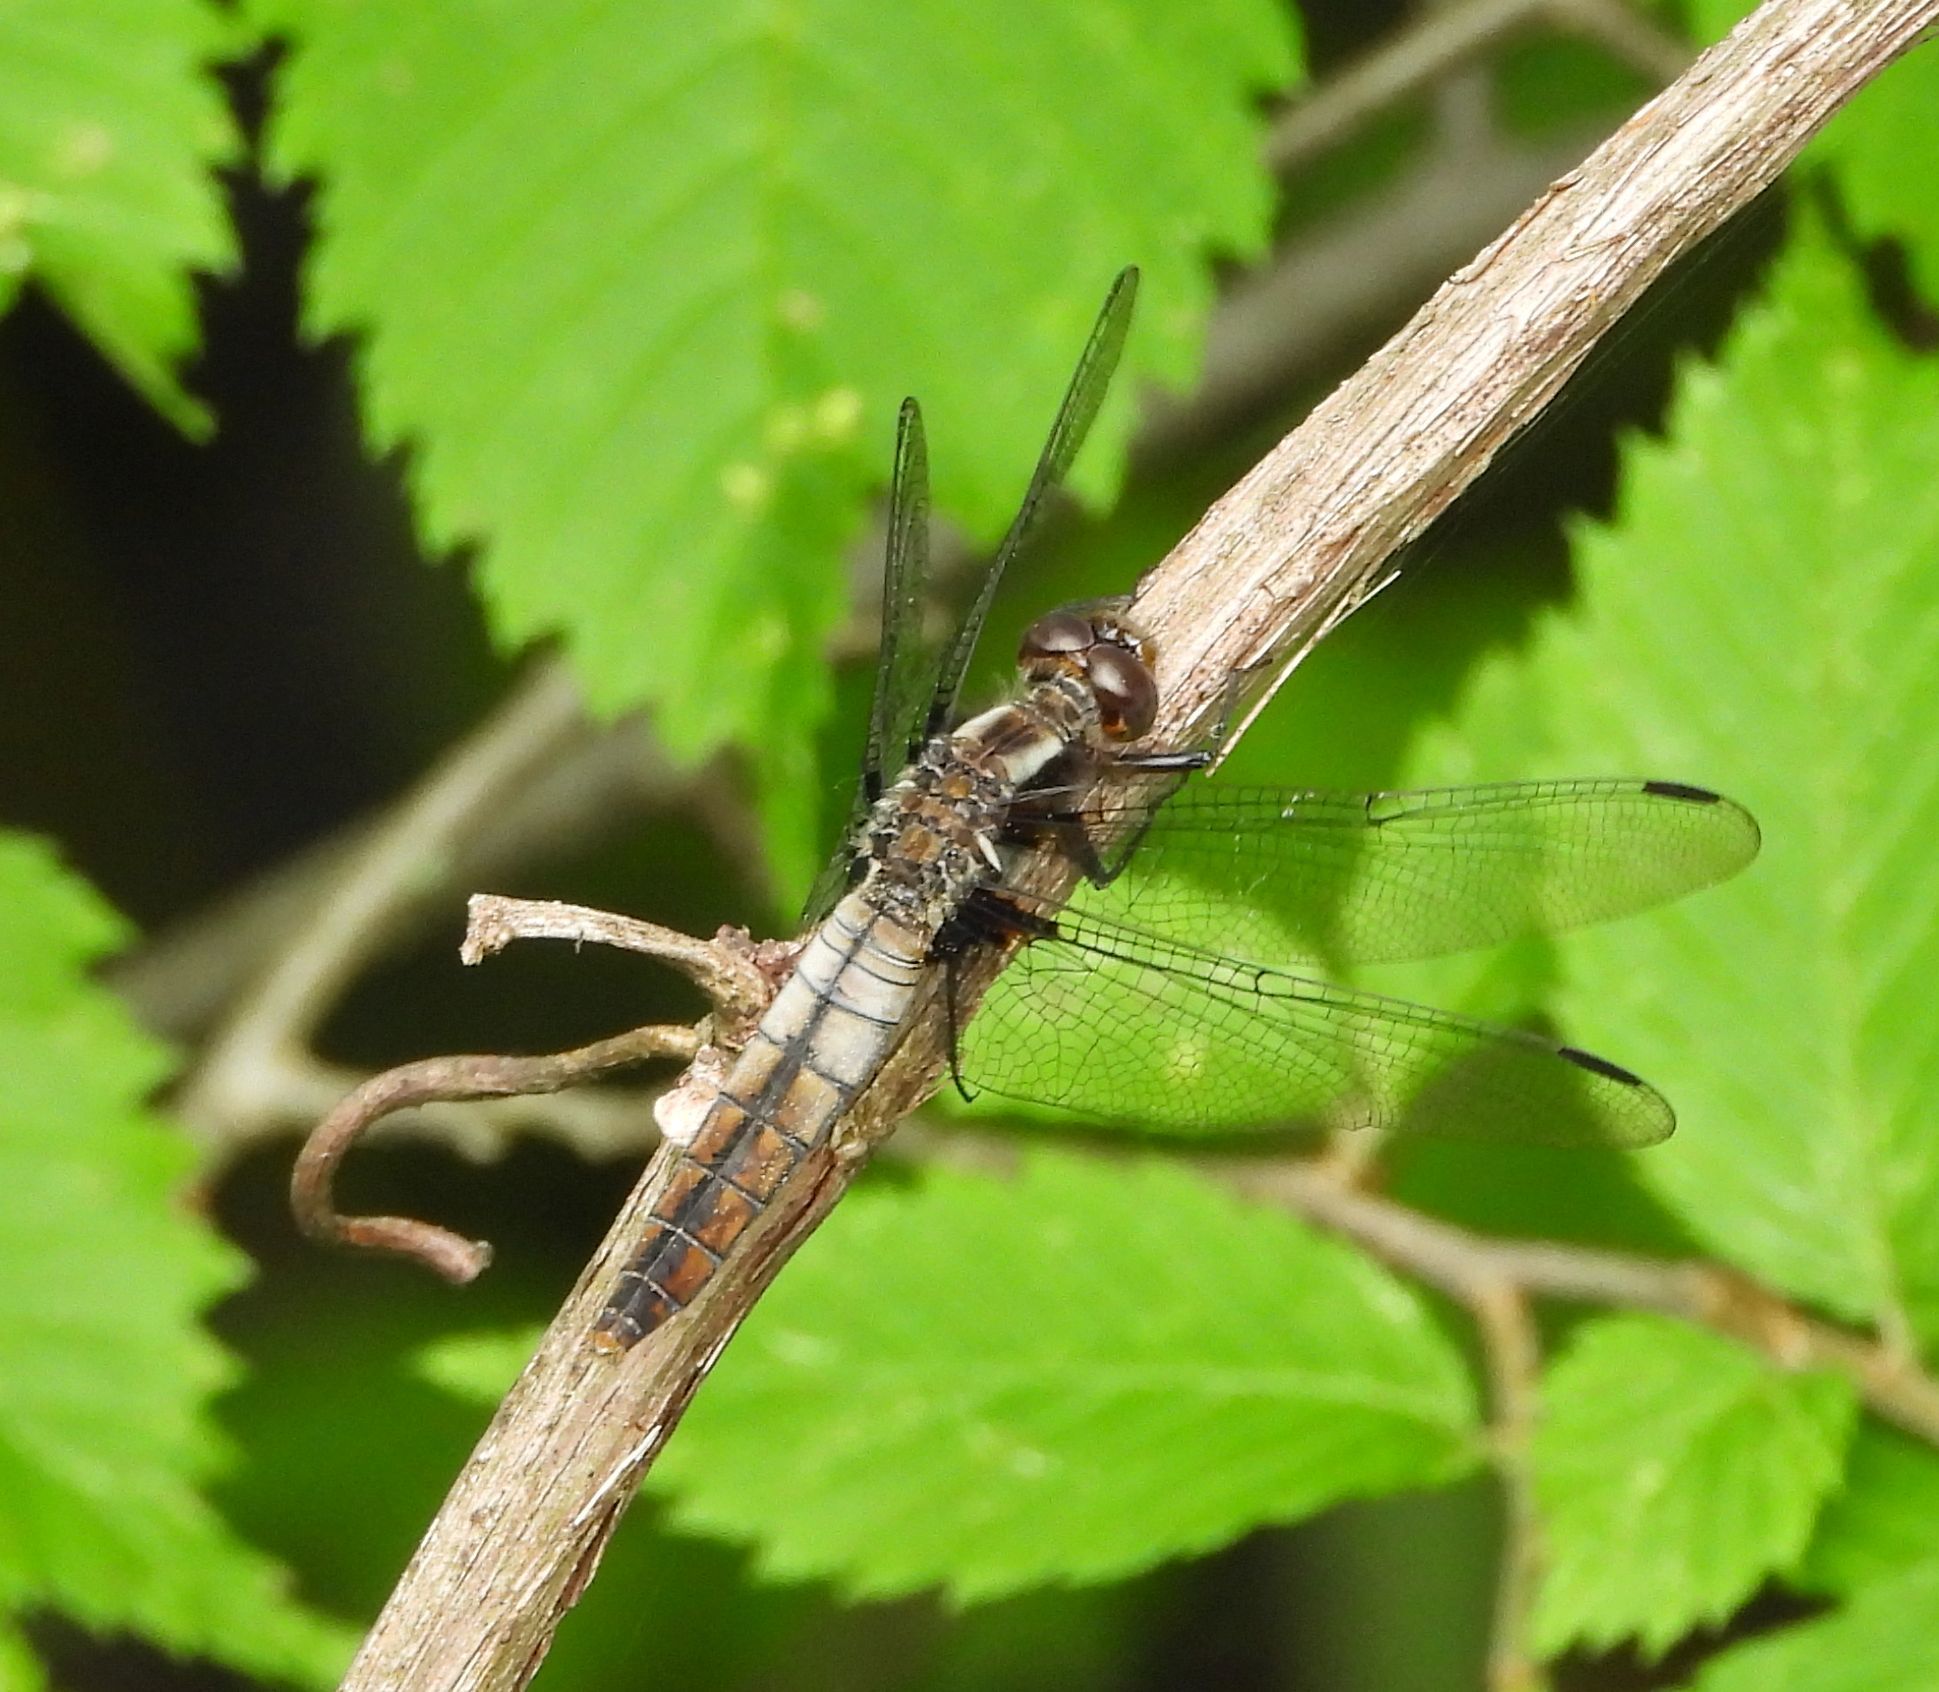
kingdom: Animalia
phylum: Arthropoda
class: Insecta
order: Odonata
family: Libellulidae
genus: Ladona
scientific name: Ladona julia
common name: Chalk-fronted corporal
